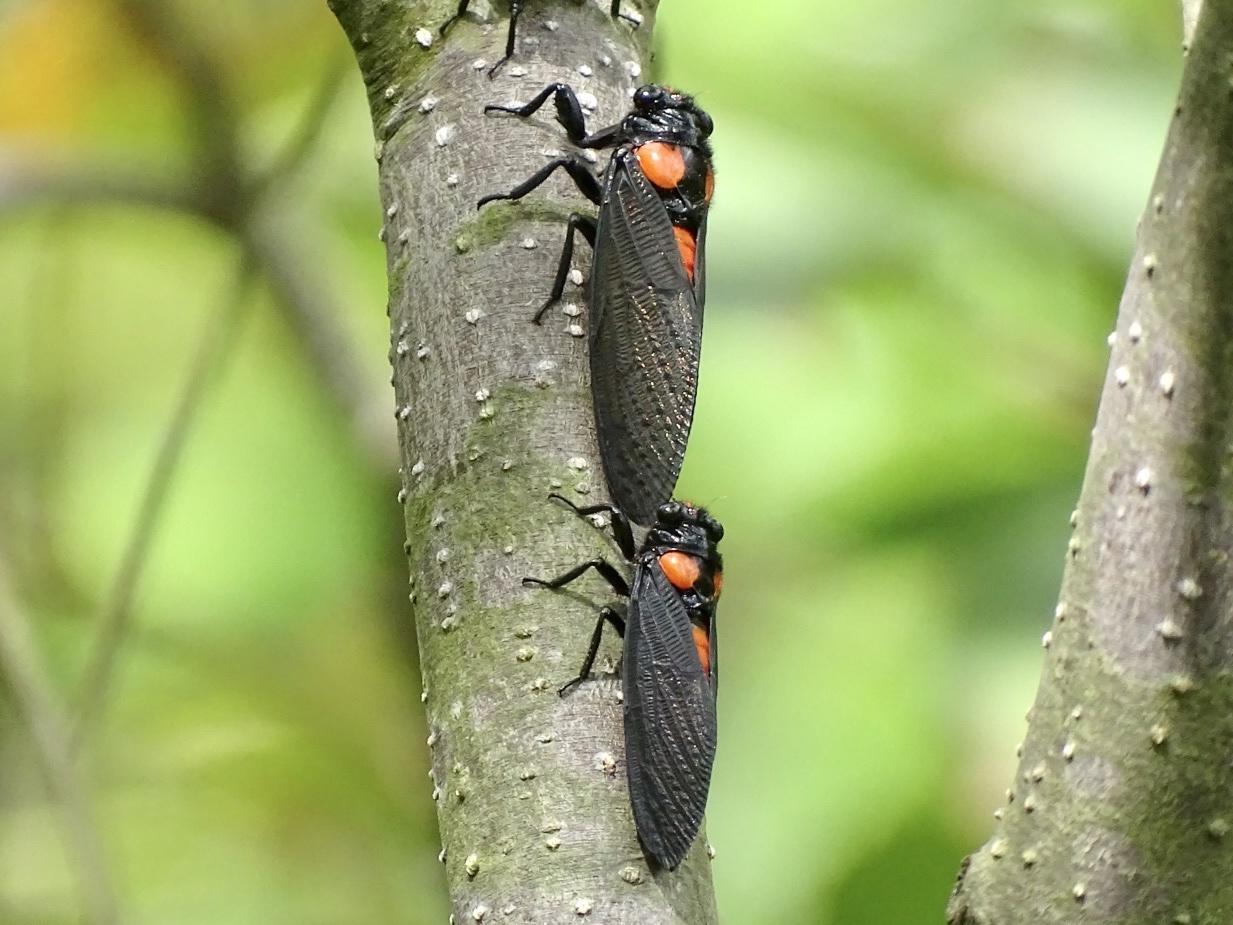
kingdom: Animalia
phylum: Arthropoda
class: Insecta
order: Hemiptera
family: Cicadidae
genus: Huechys
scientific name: Huechys sanguinea
